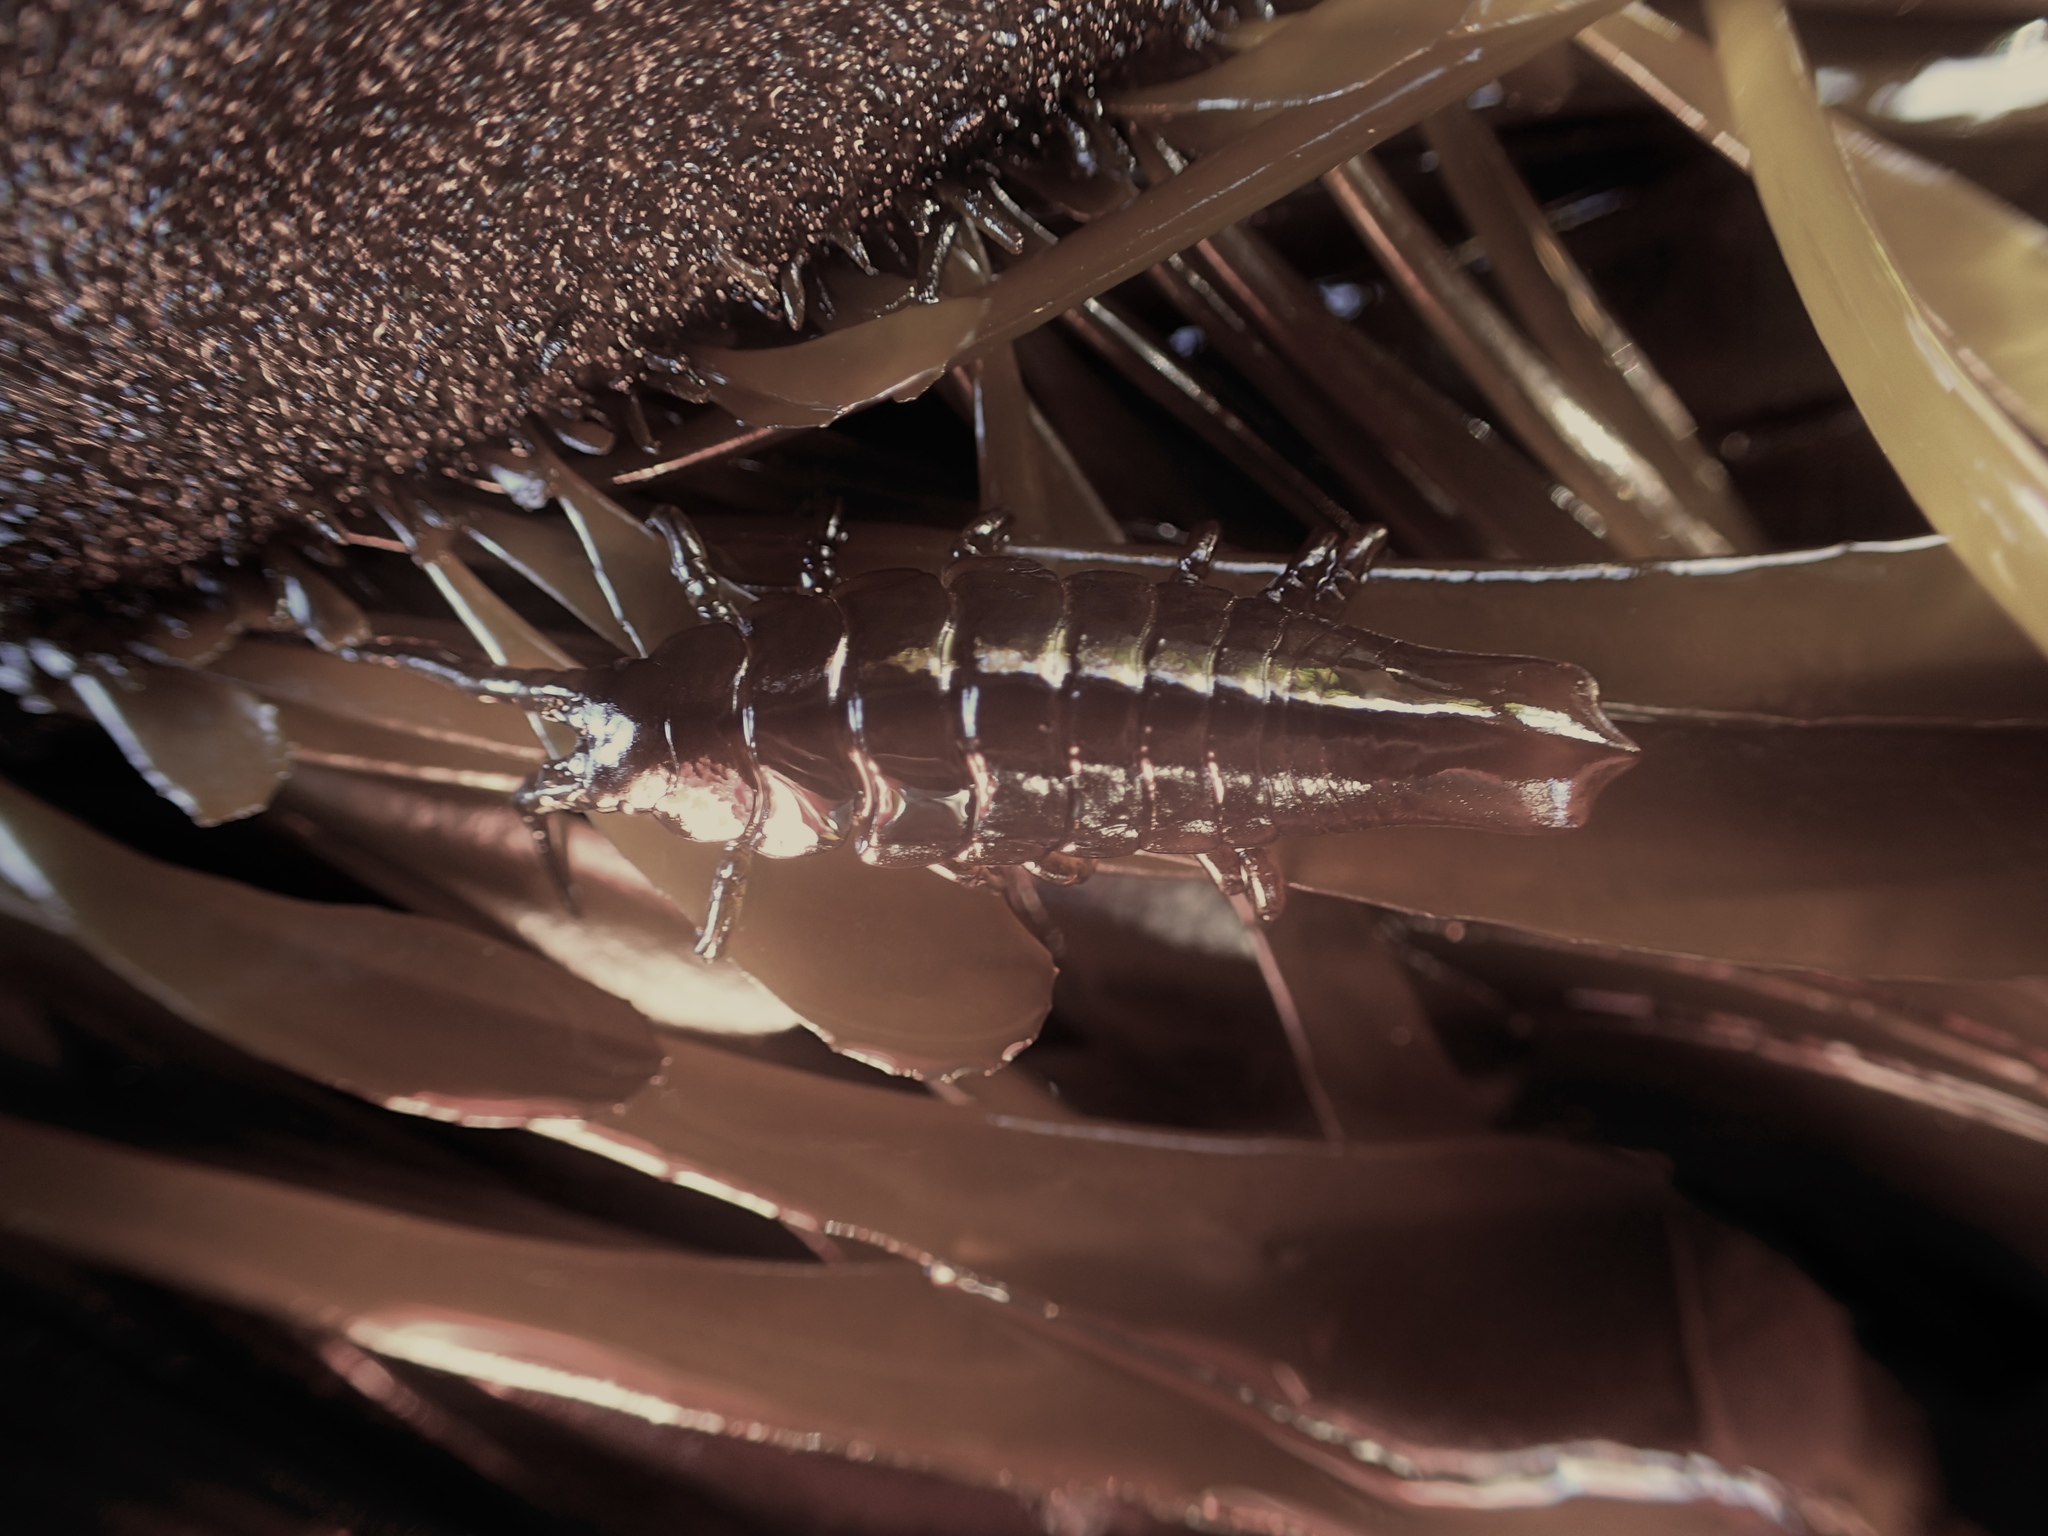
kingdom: Animalia
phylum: Arthropoda
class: Malacostraca
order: Isopoda
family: Idoteidae
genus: Pentidotea
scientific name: Pentidotea stenops
